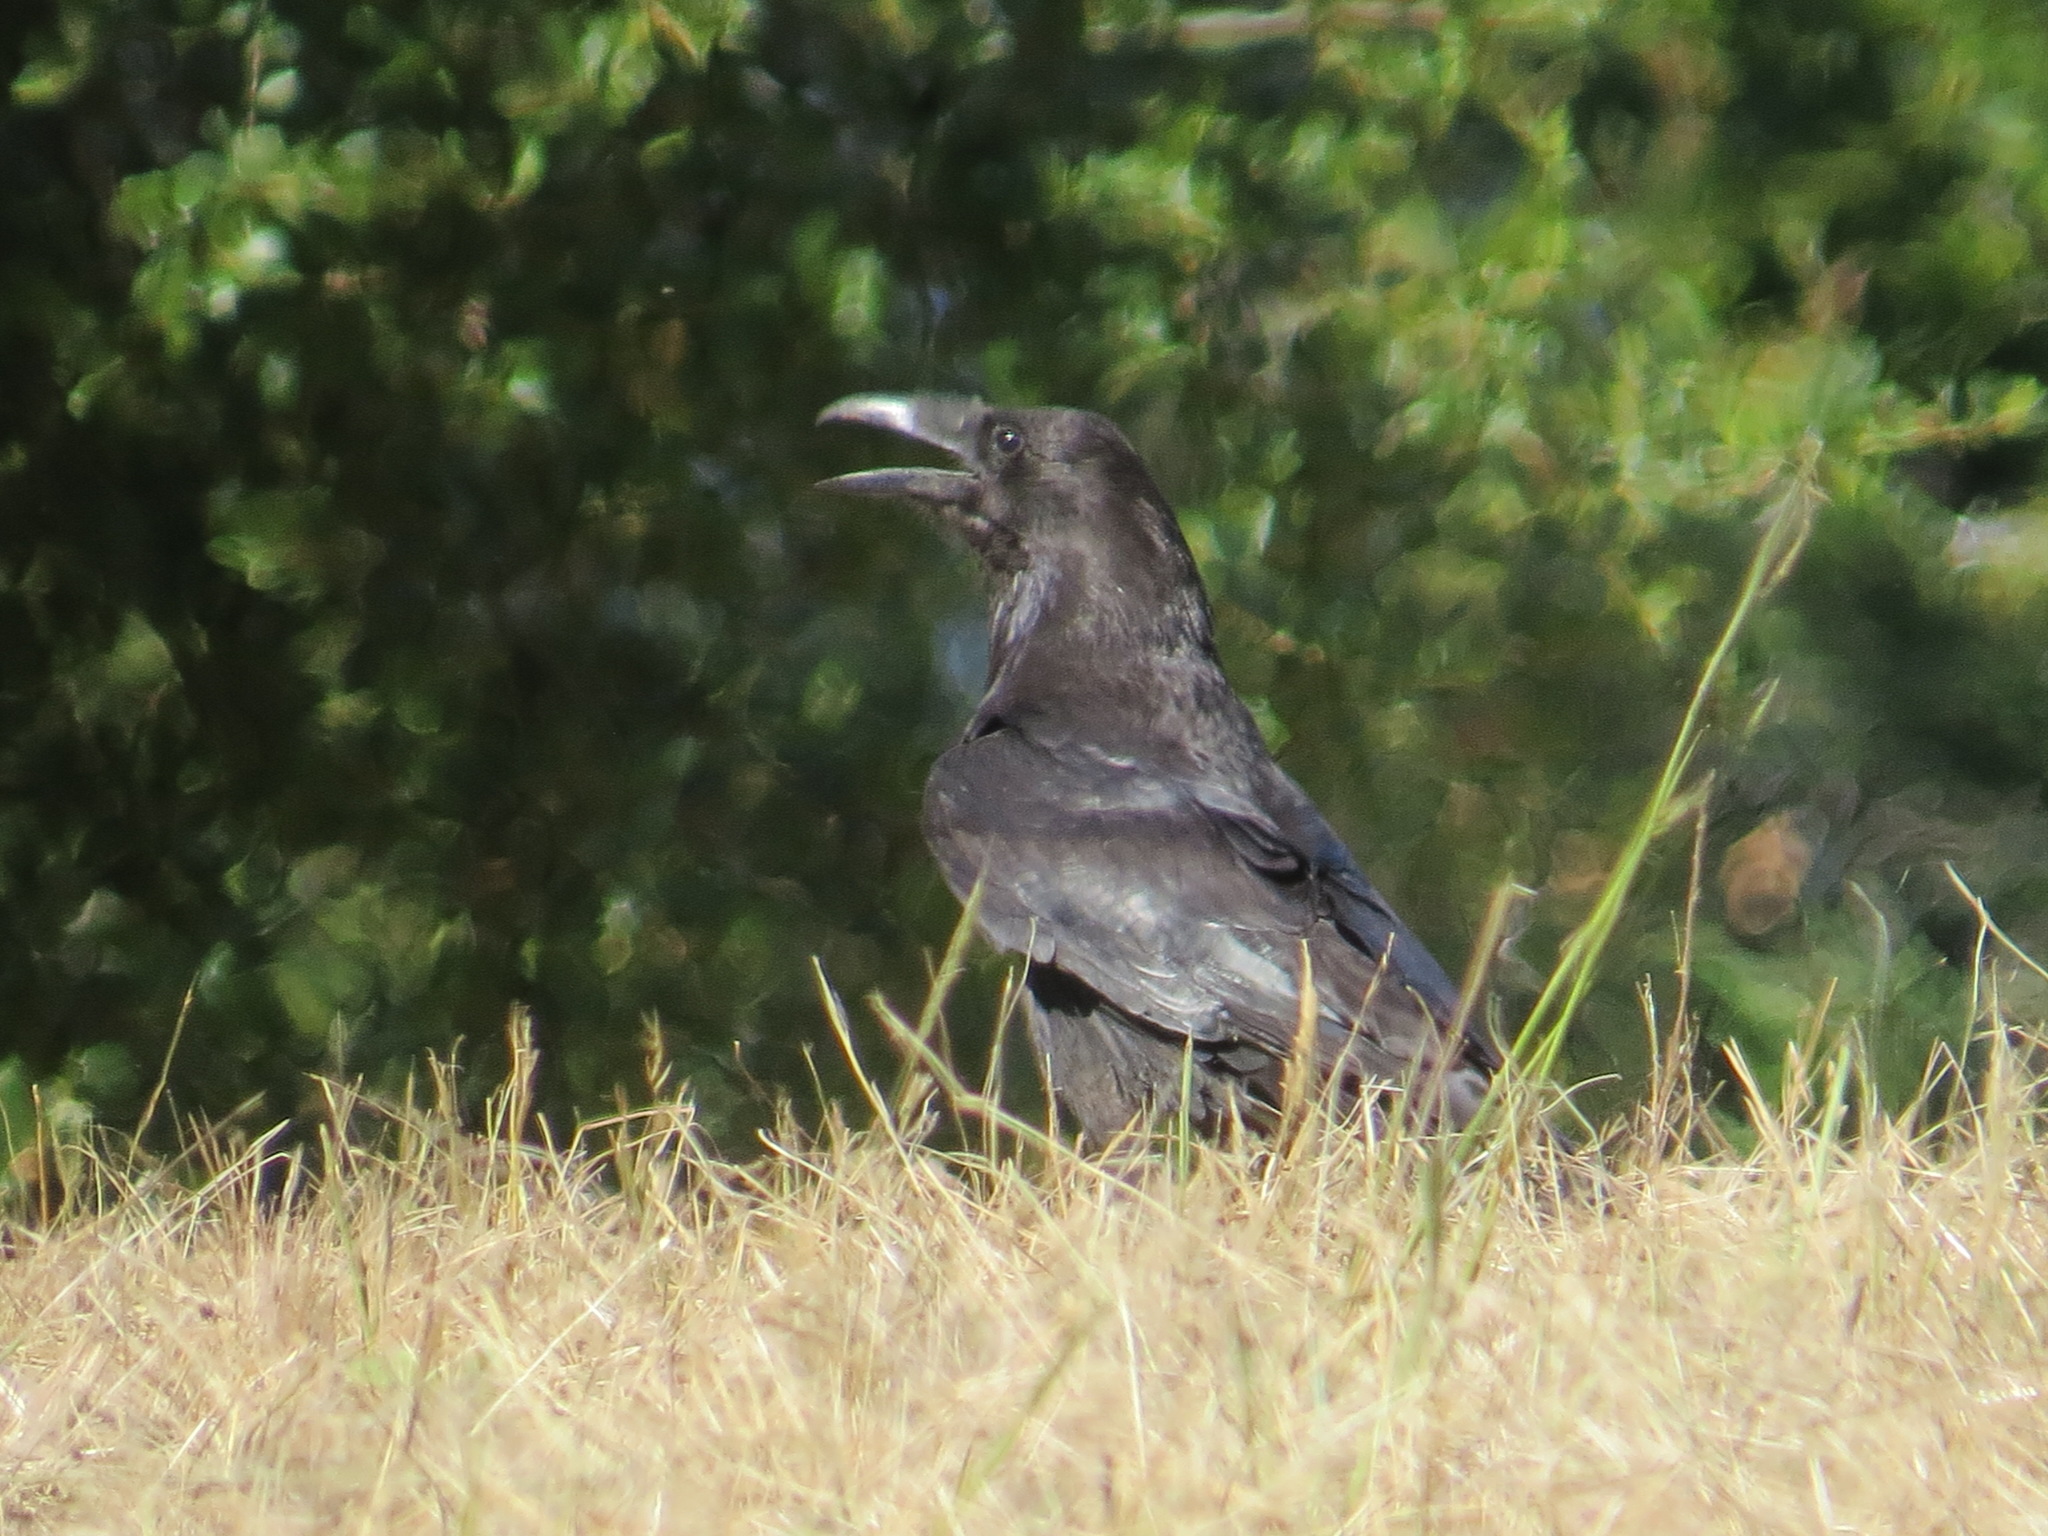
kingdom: Animalia
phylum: Chordata
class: Aves
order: Passeriformes
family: Corvidae
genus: Corvus
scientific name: Corvus corax
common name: Common raven
